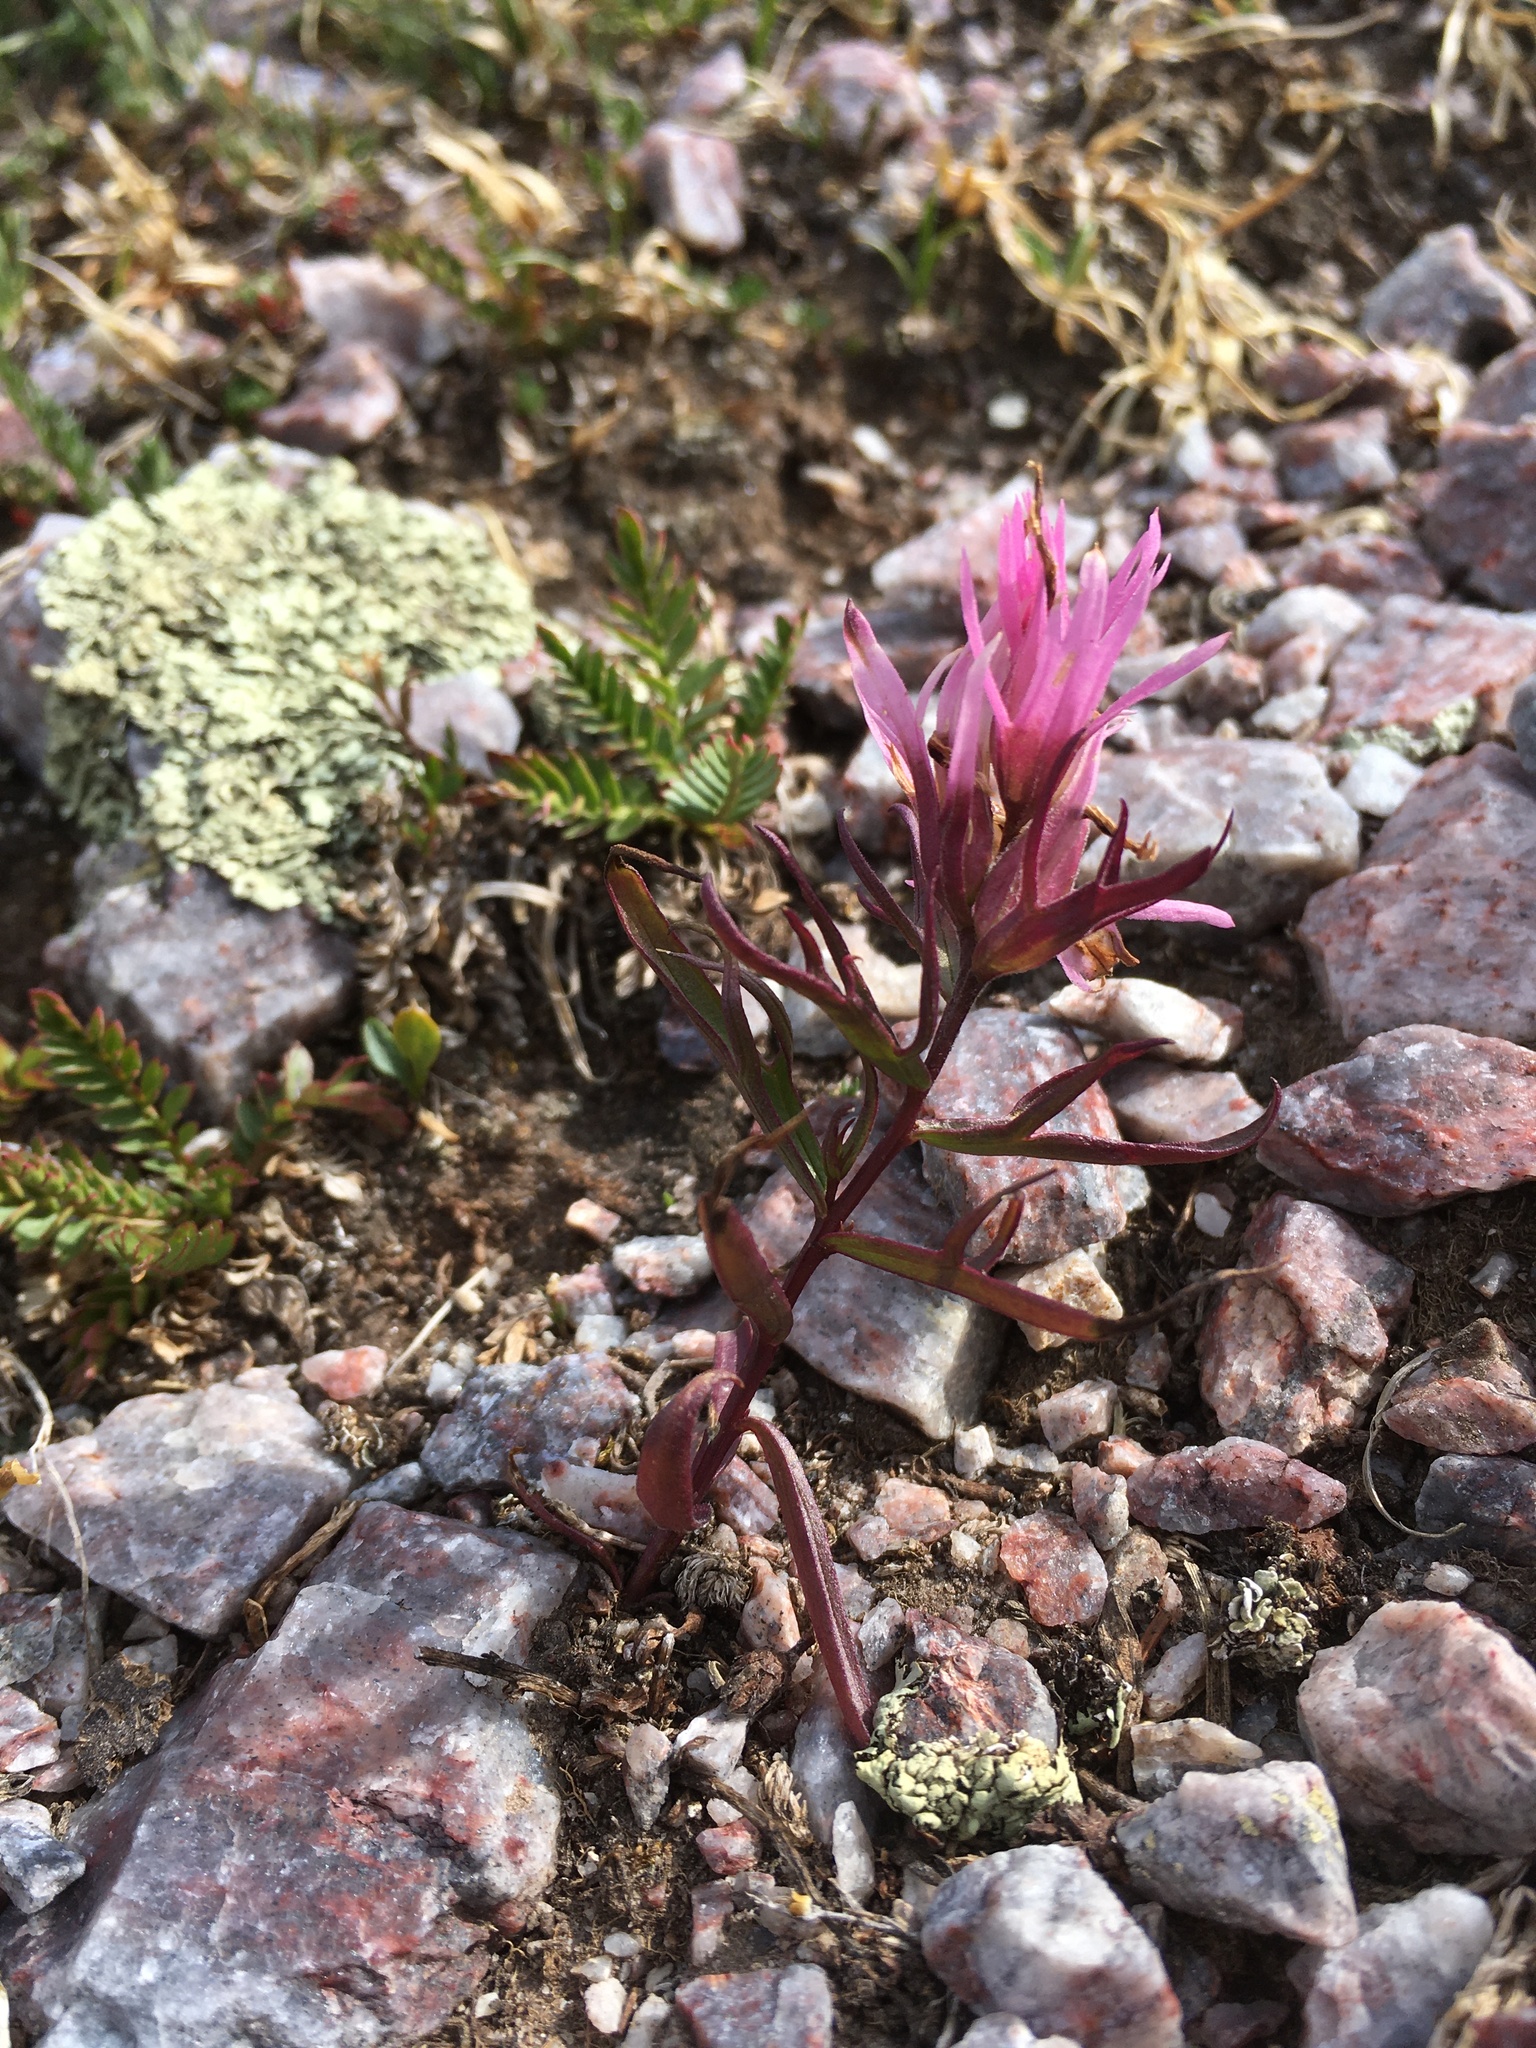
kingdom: Plantae
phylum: Tracheophyta
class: Magnoliopsida
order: Lamiales
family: Orobanchaceae
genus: Castilleja
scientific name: Castilleja haydenii
